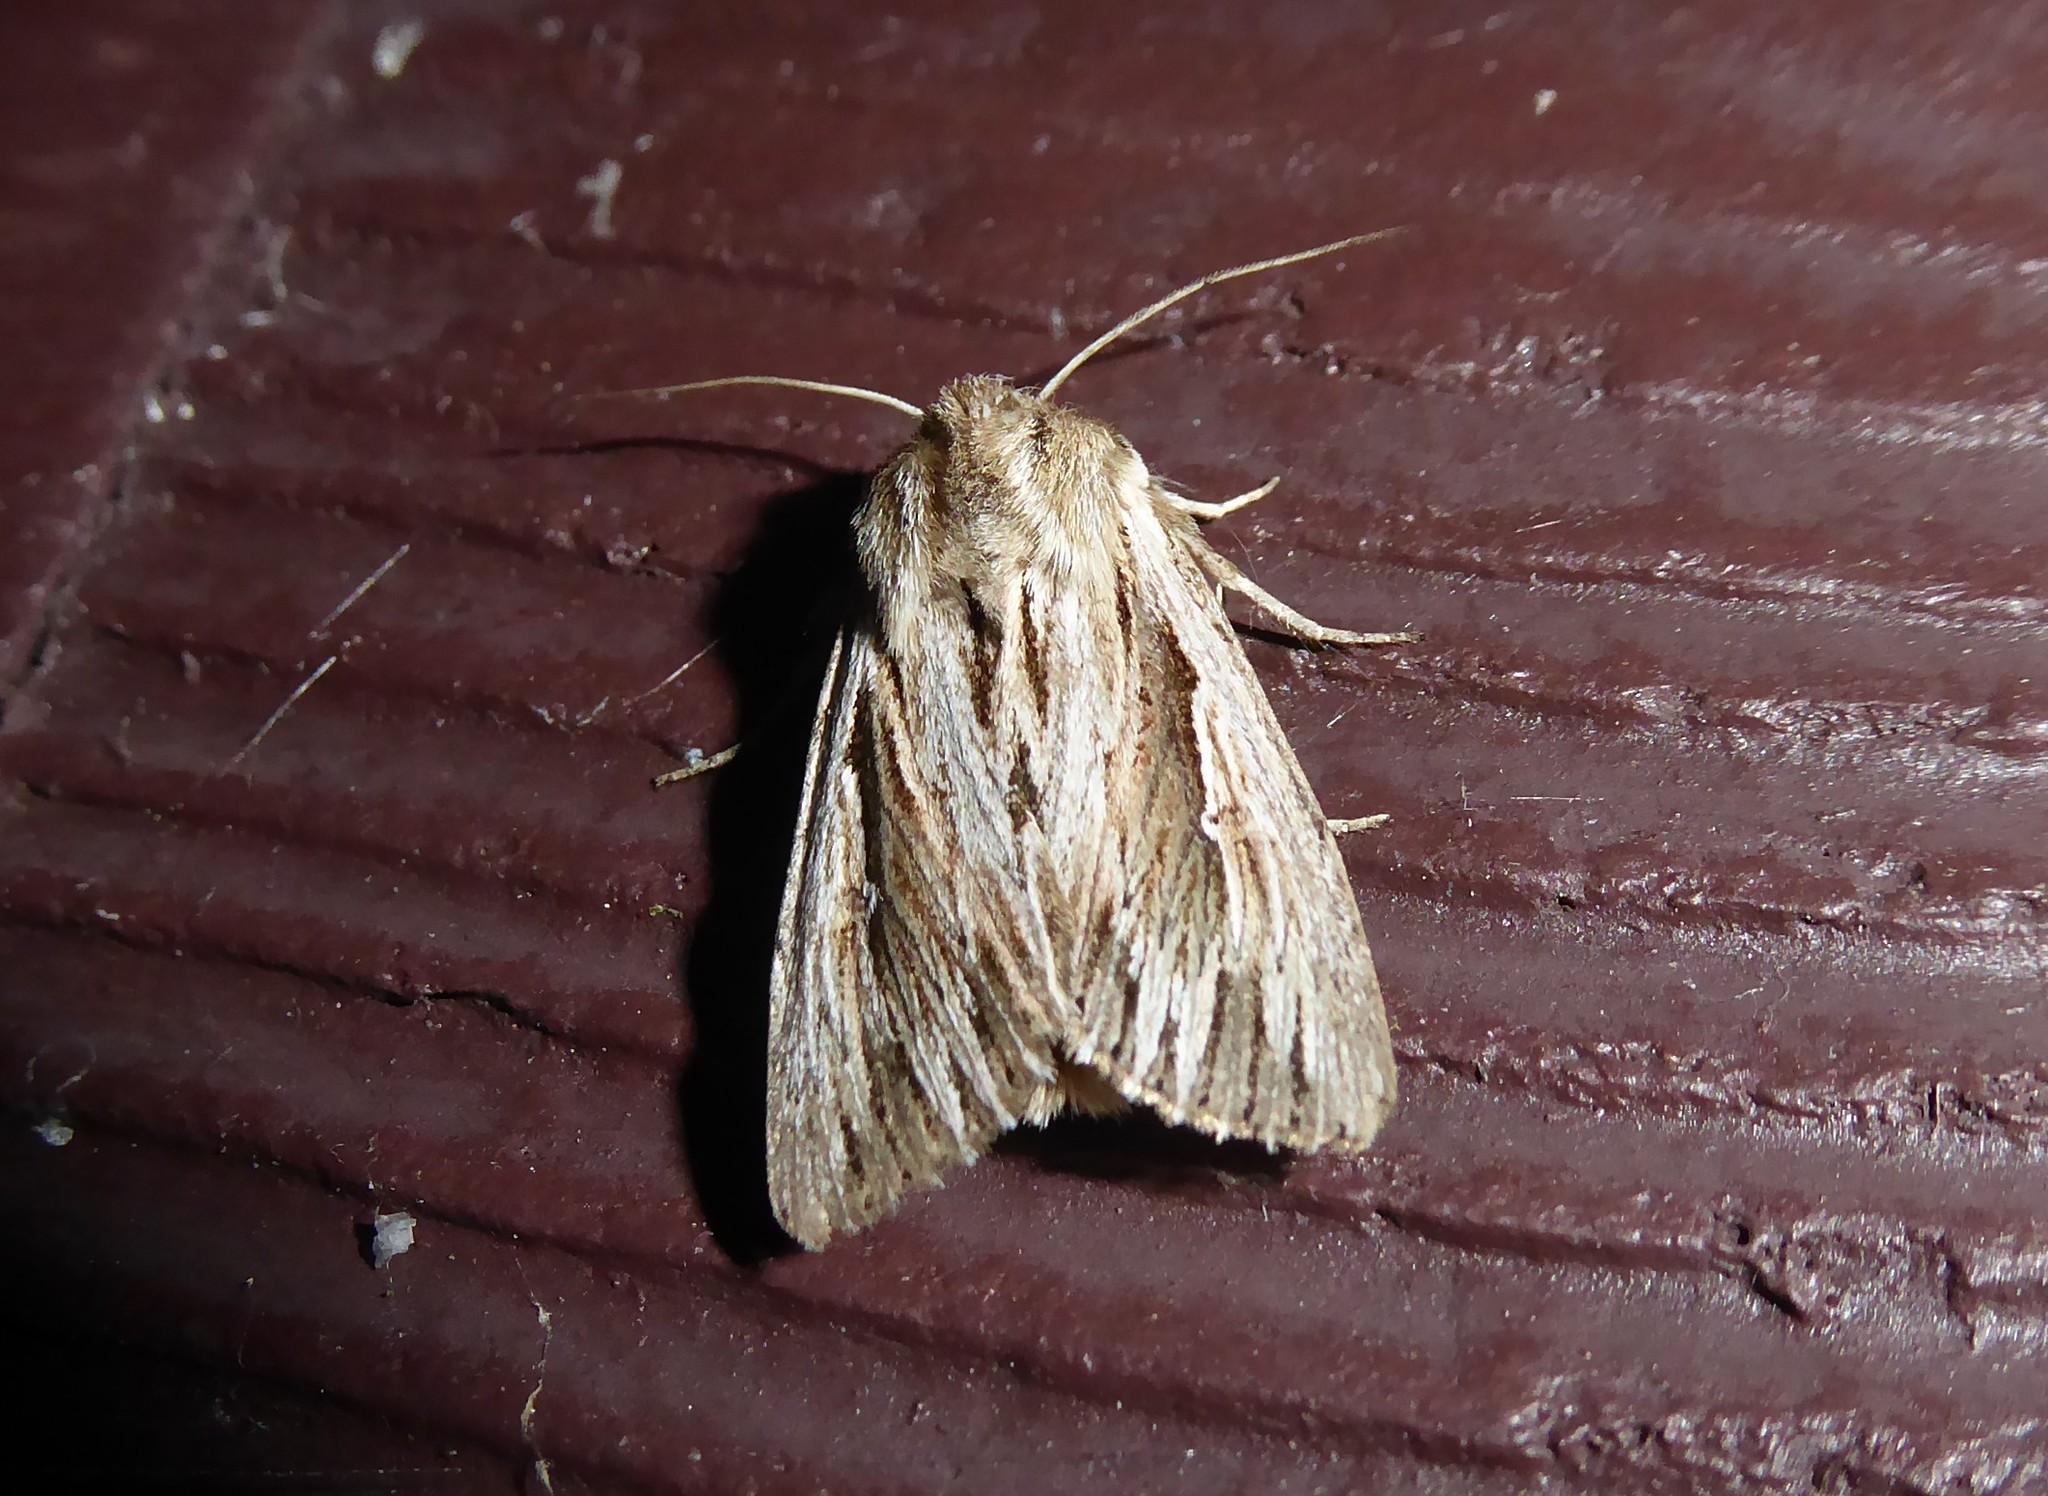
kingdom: Animalia
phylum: Arthropoda
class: Insecta
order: Lepidoptera
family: Noctuidae
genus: Persectania
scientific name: Persectania aversa
